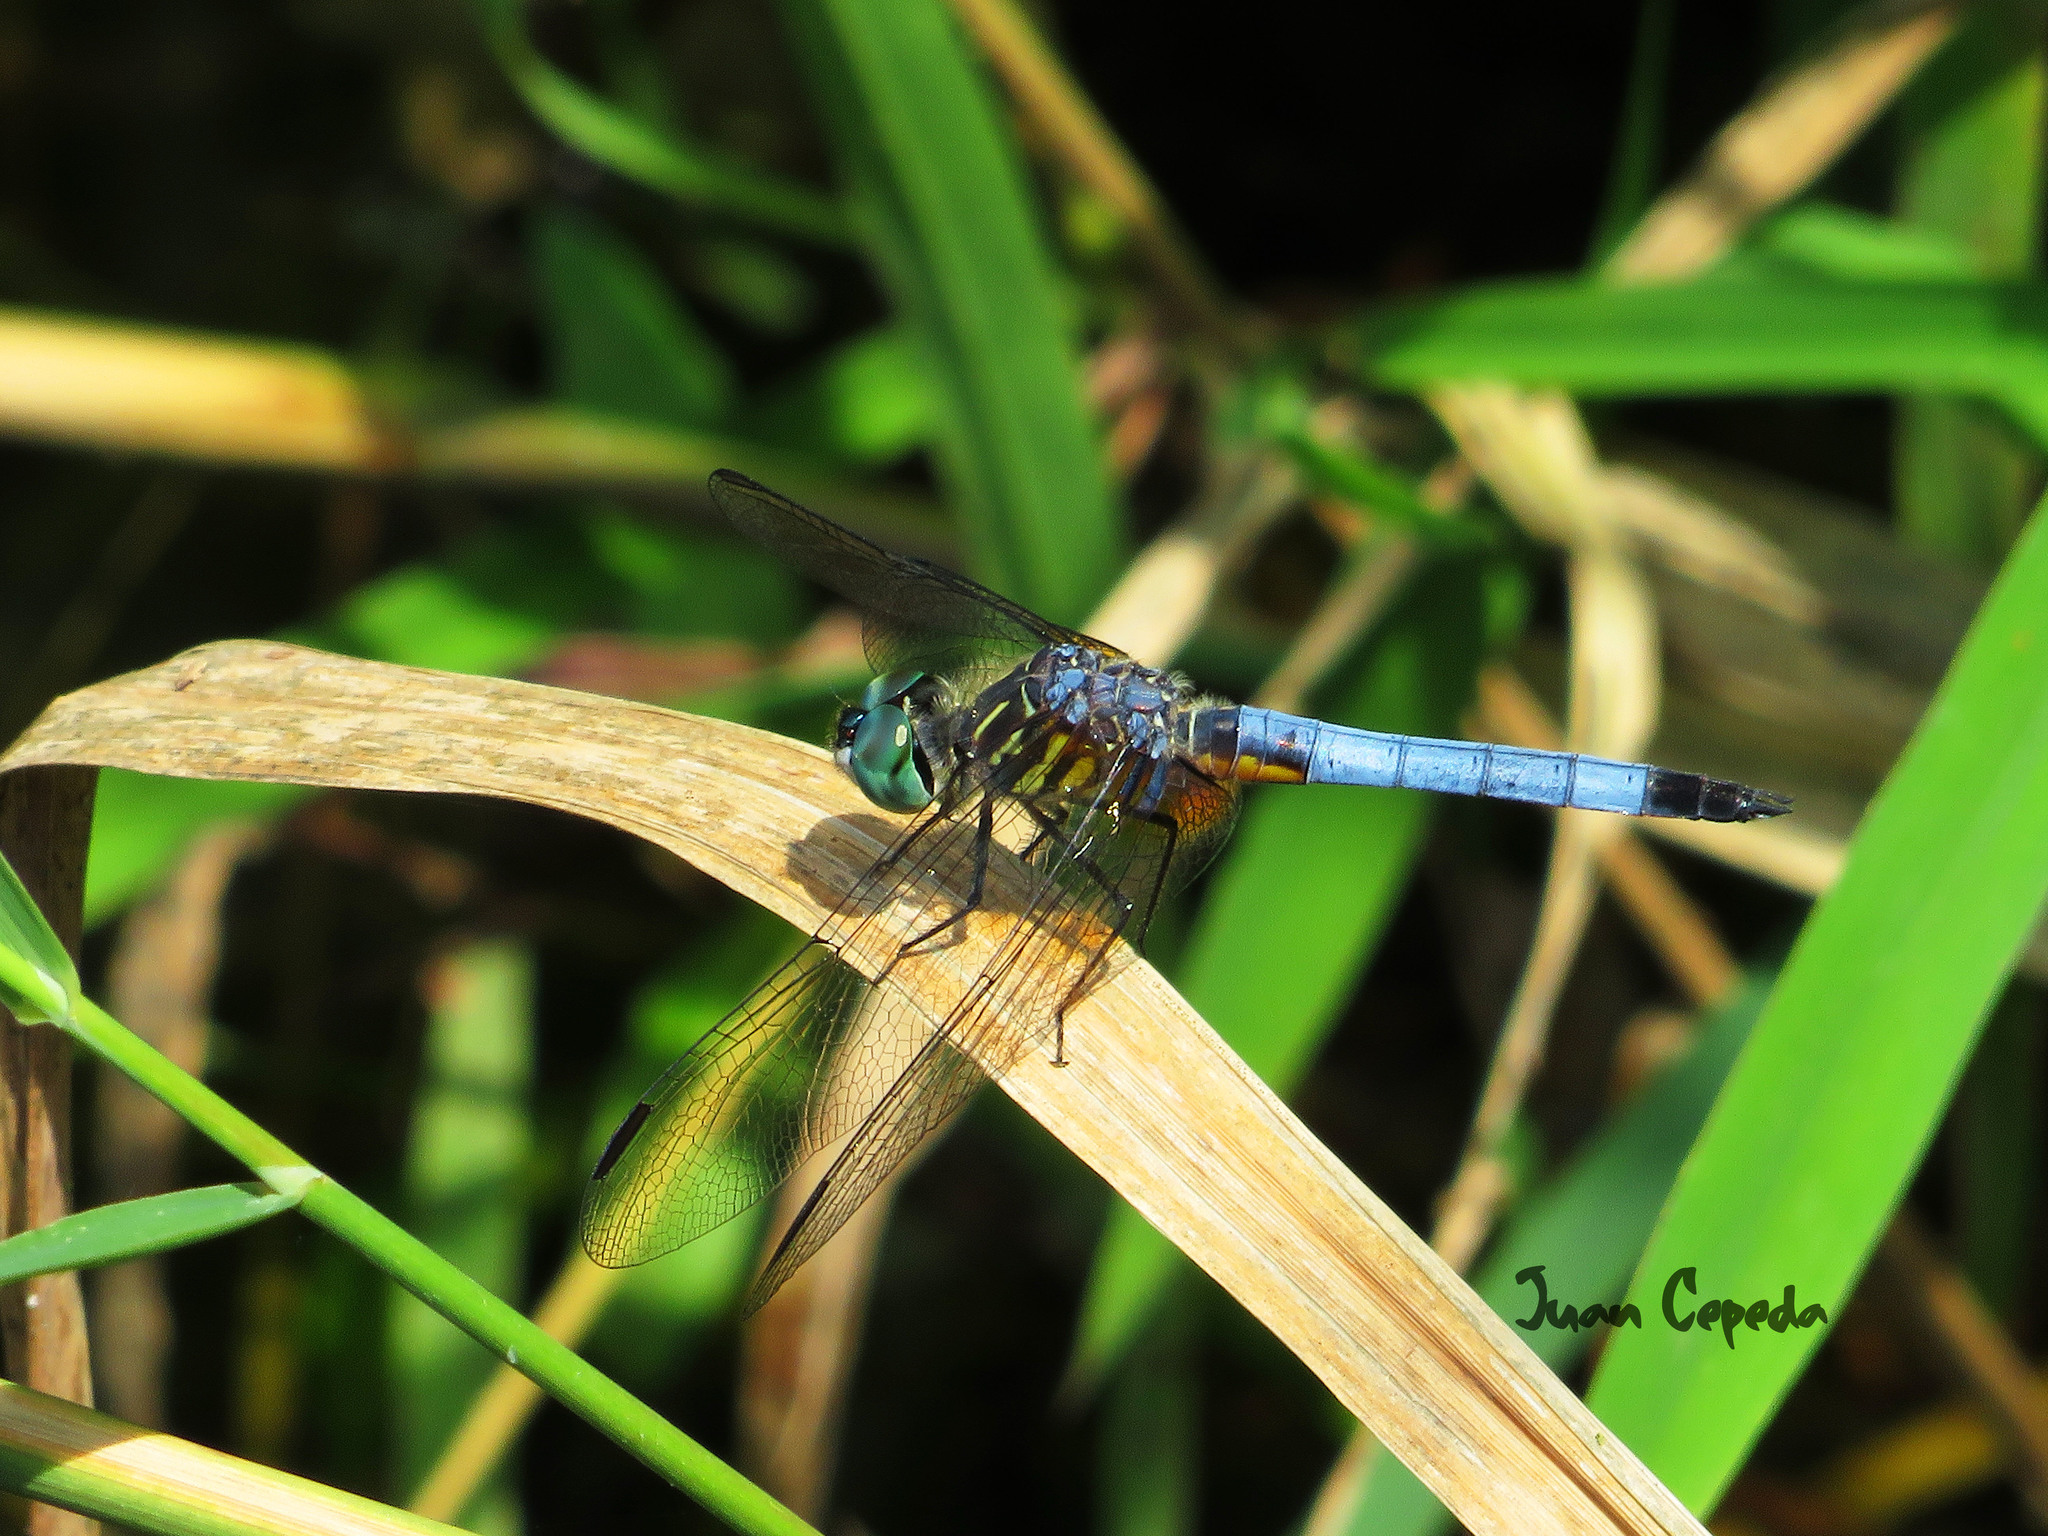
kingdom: Animalia
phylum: Arthropoda
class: Insecta
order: Odonata
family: Libellulidae
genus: Pachydiplax
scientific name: Pachydiplax longipennis
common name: Blue dasher
